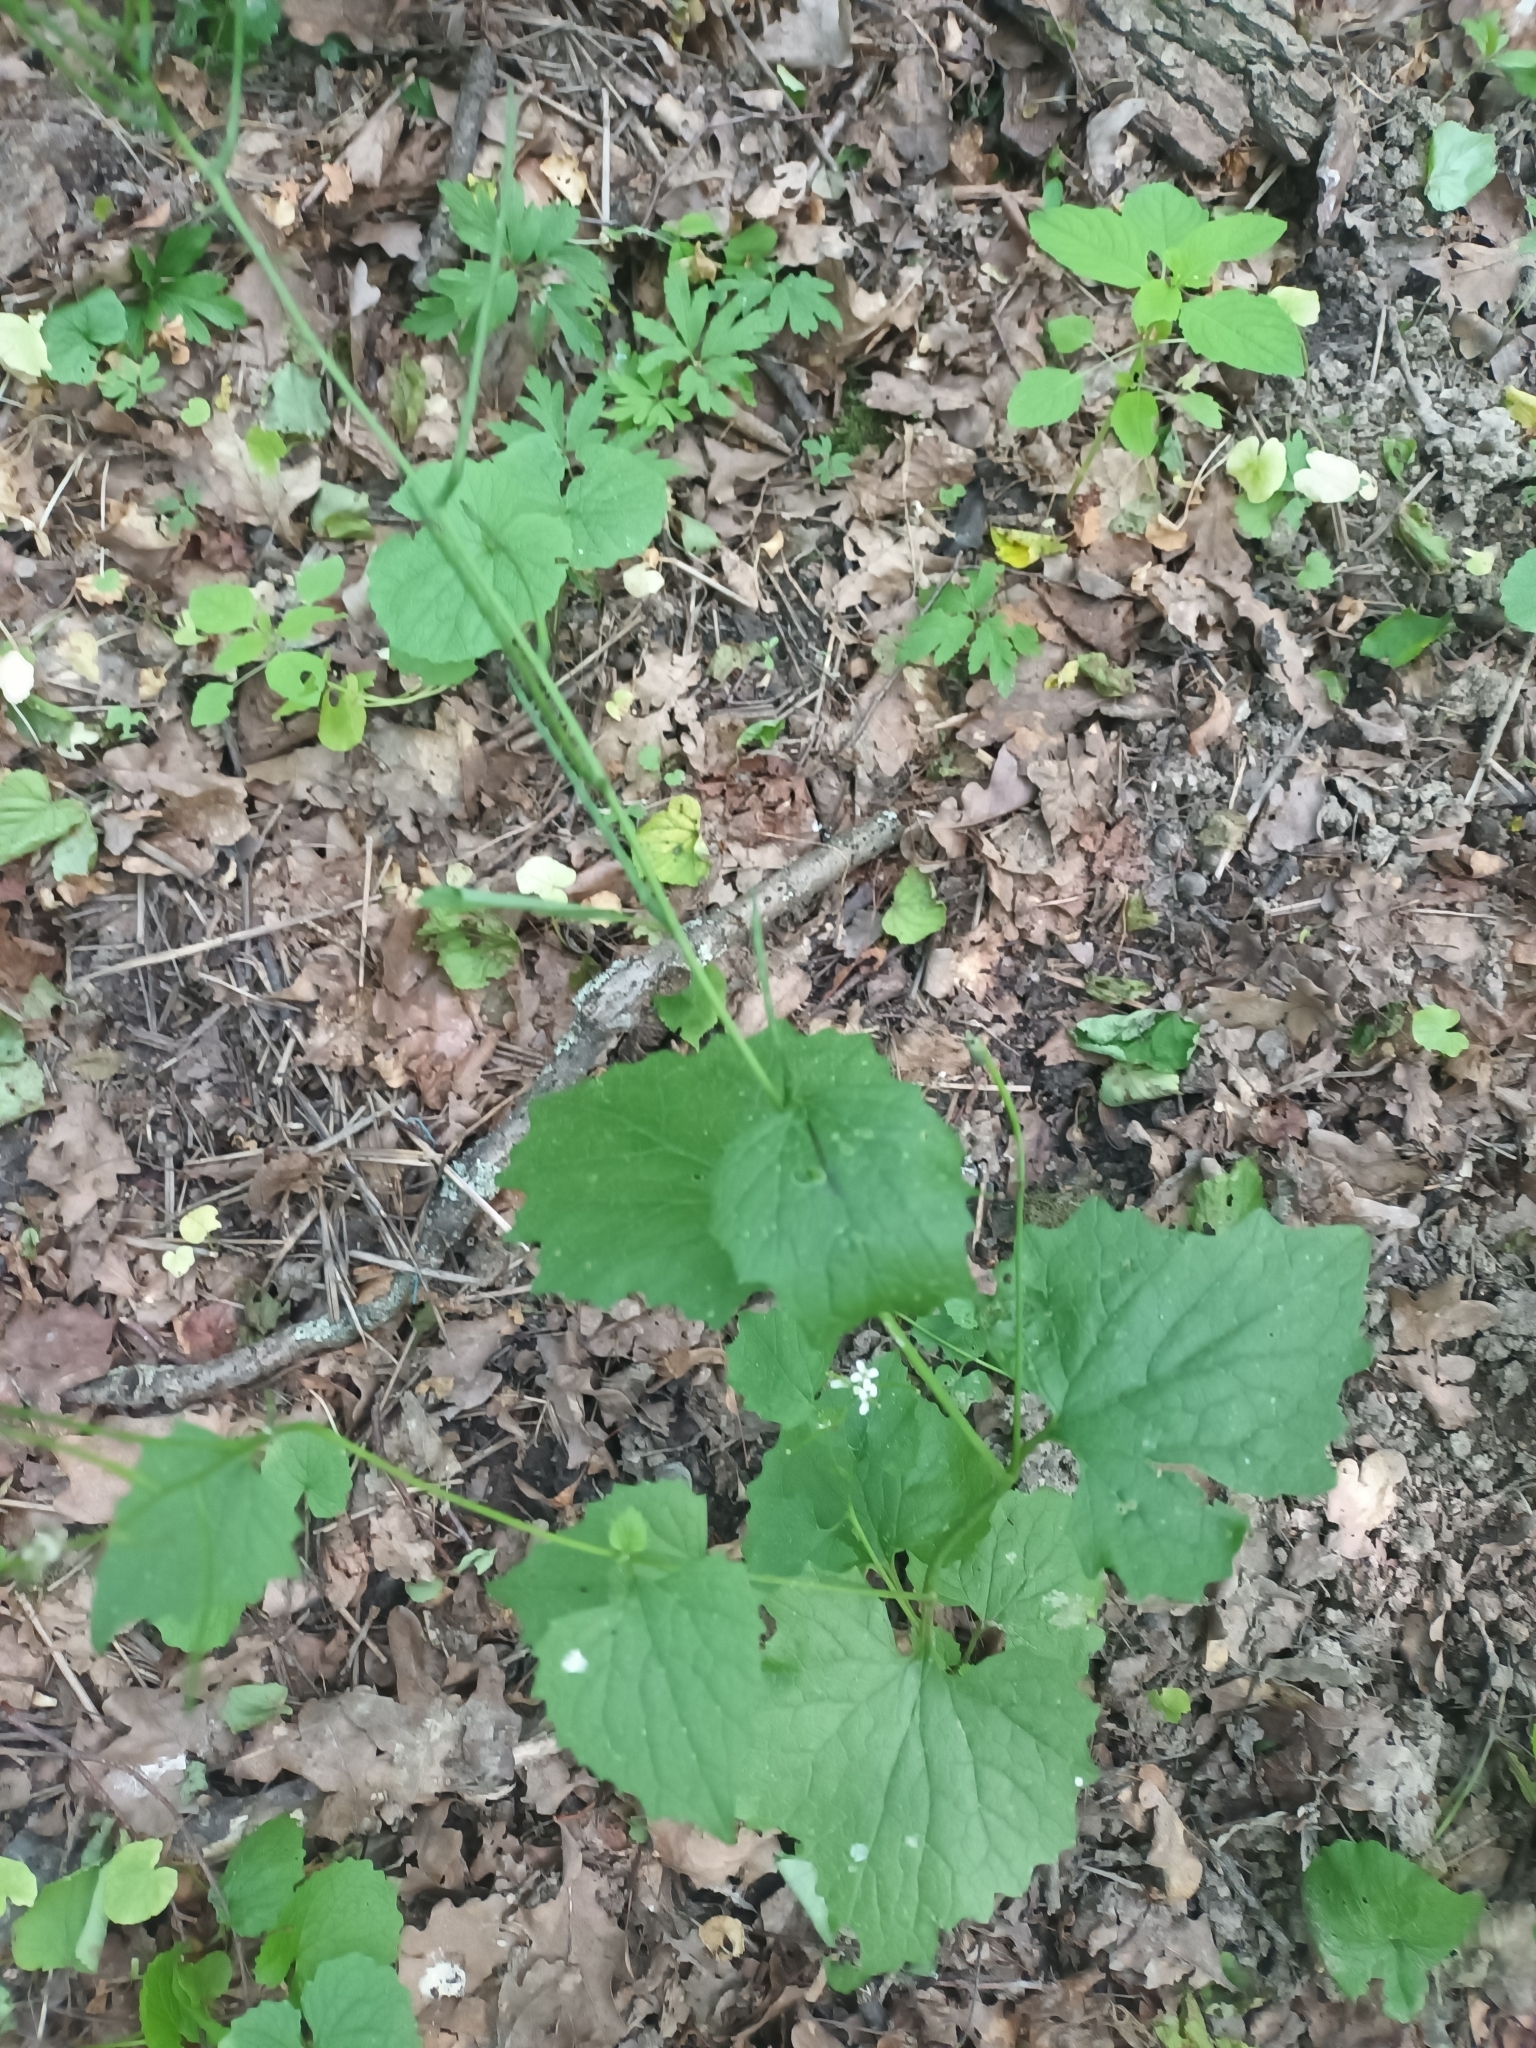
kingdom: Plantae
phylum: Tracheophyta
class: Magnoliopsida
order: Brassicales
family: Brassicaceae
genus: Alliaria
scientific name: Alliaria petiolata
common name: Garlic mustard
